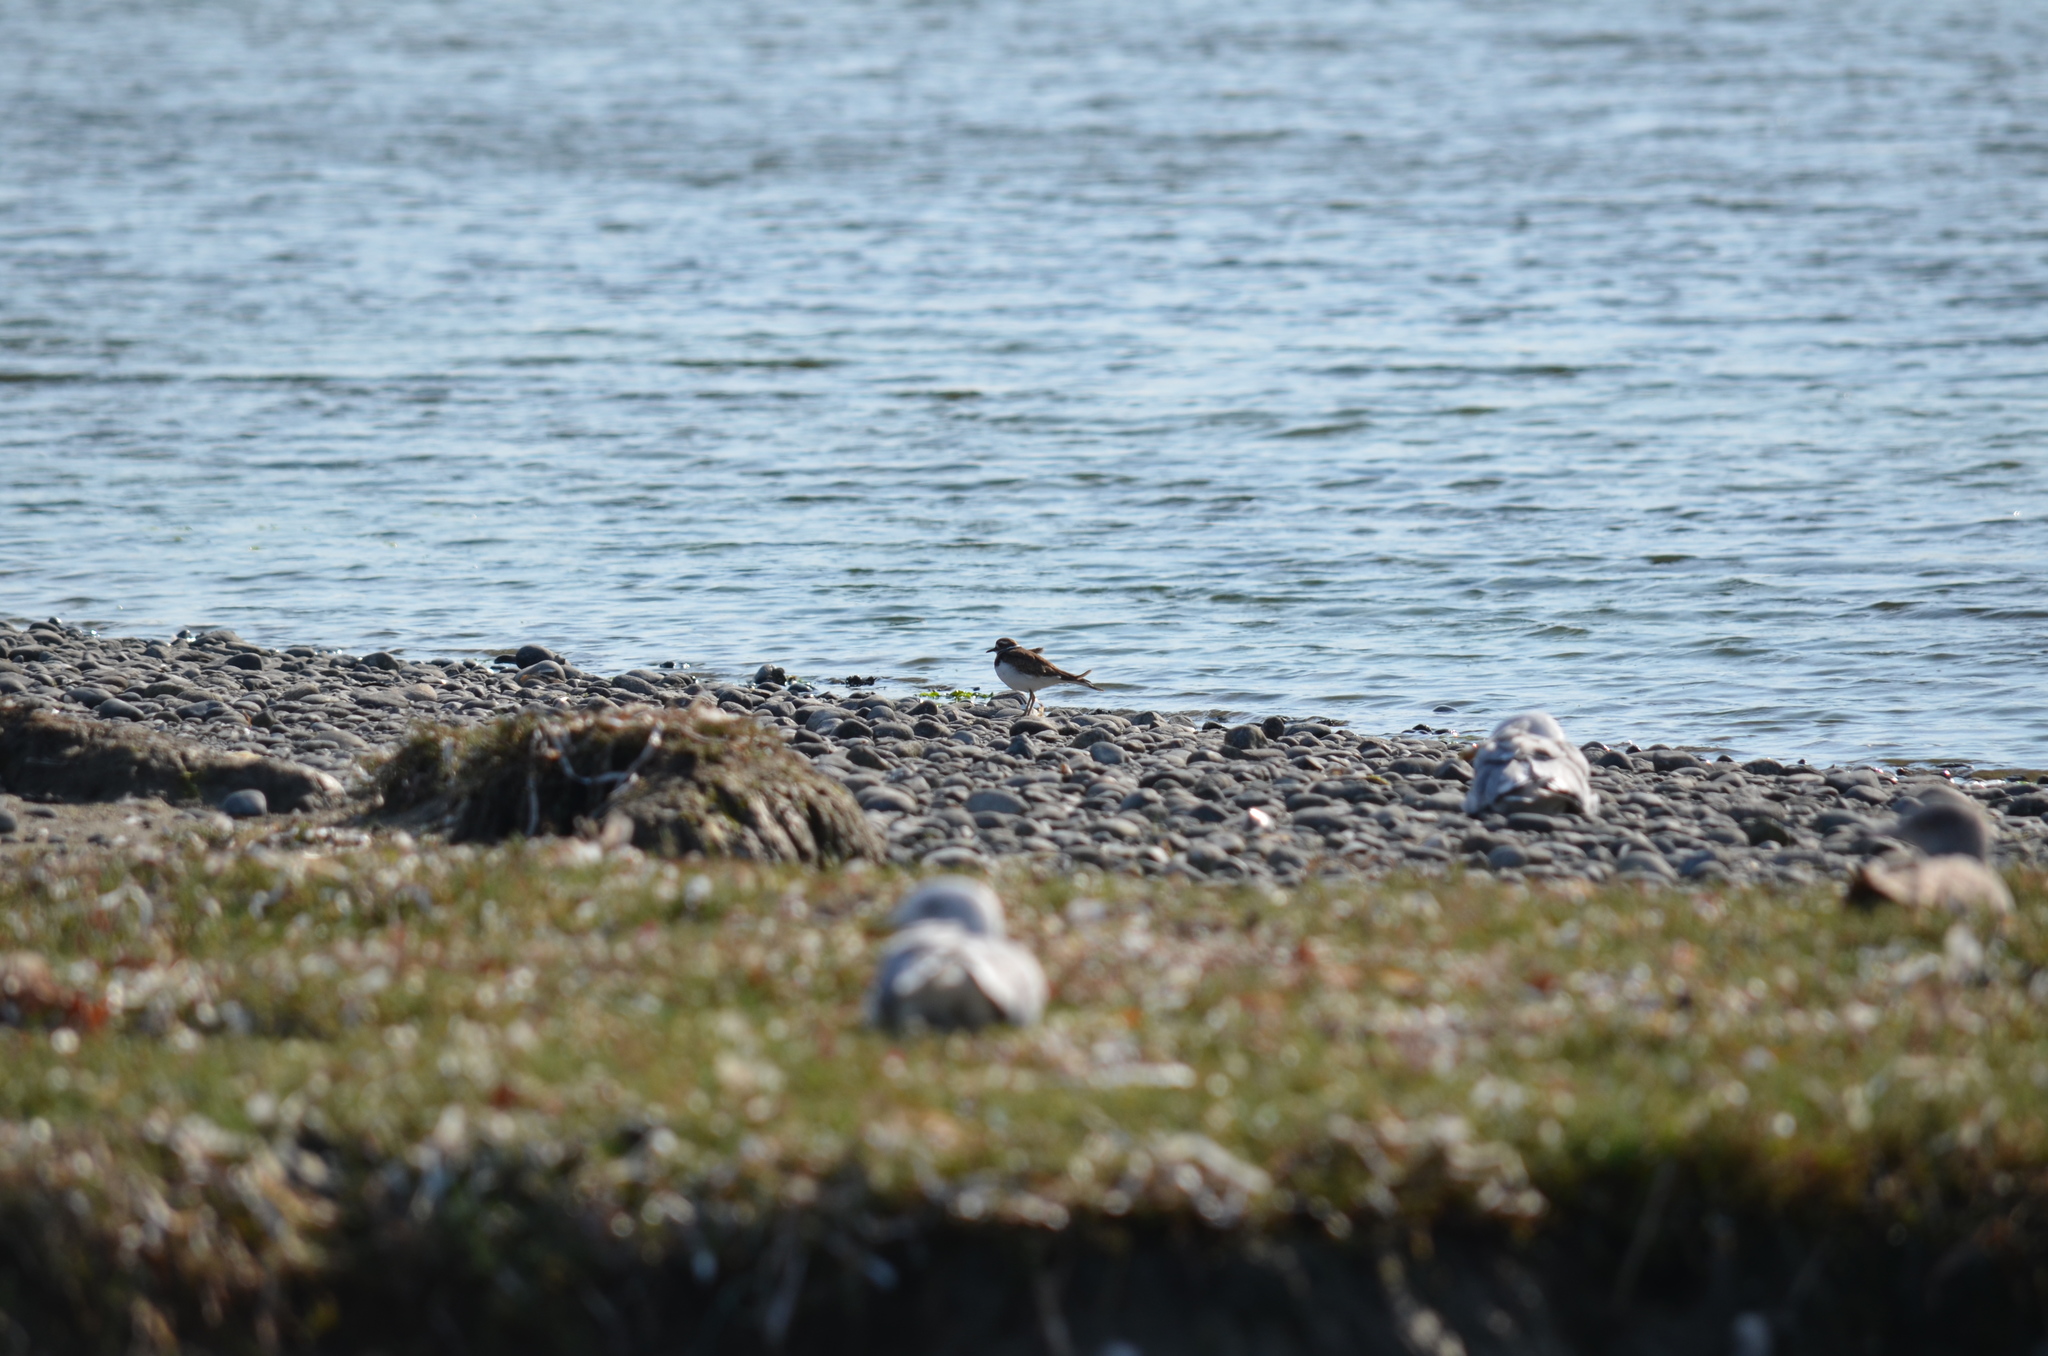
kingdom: Animalia
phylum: Chordata
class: Aves
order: Charadriiformes
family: Charadriidae
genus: Charadrius
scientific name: Charadrius vociferus
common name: Killdeer
